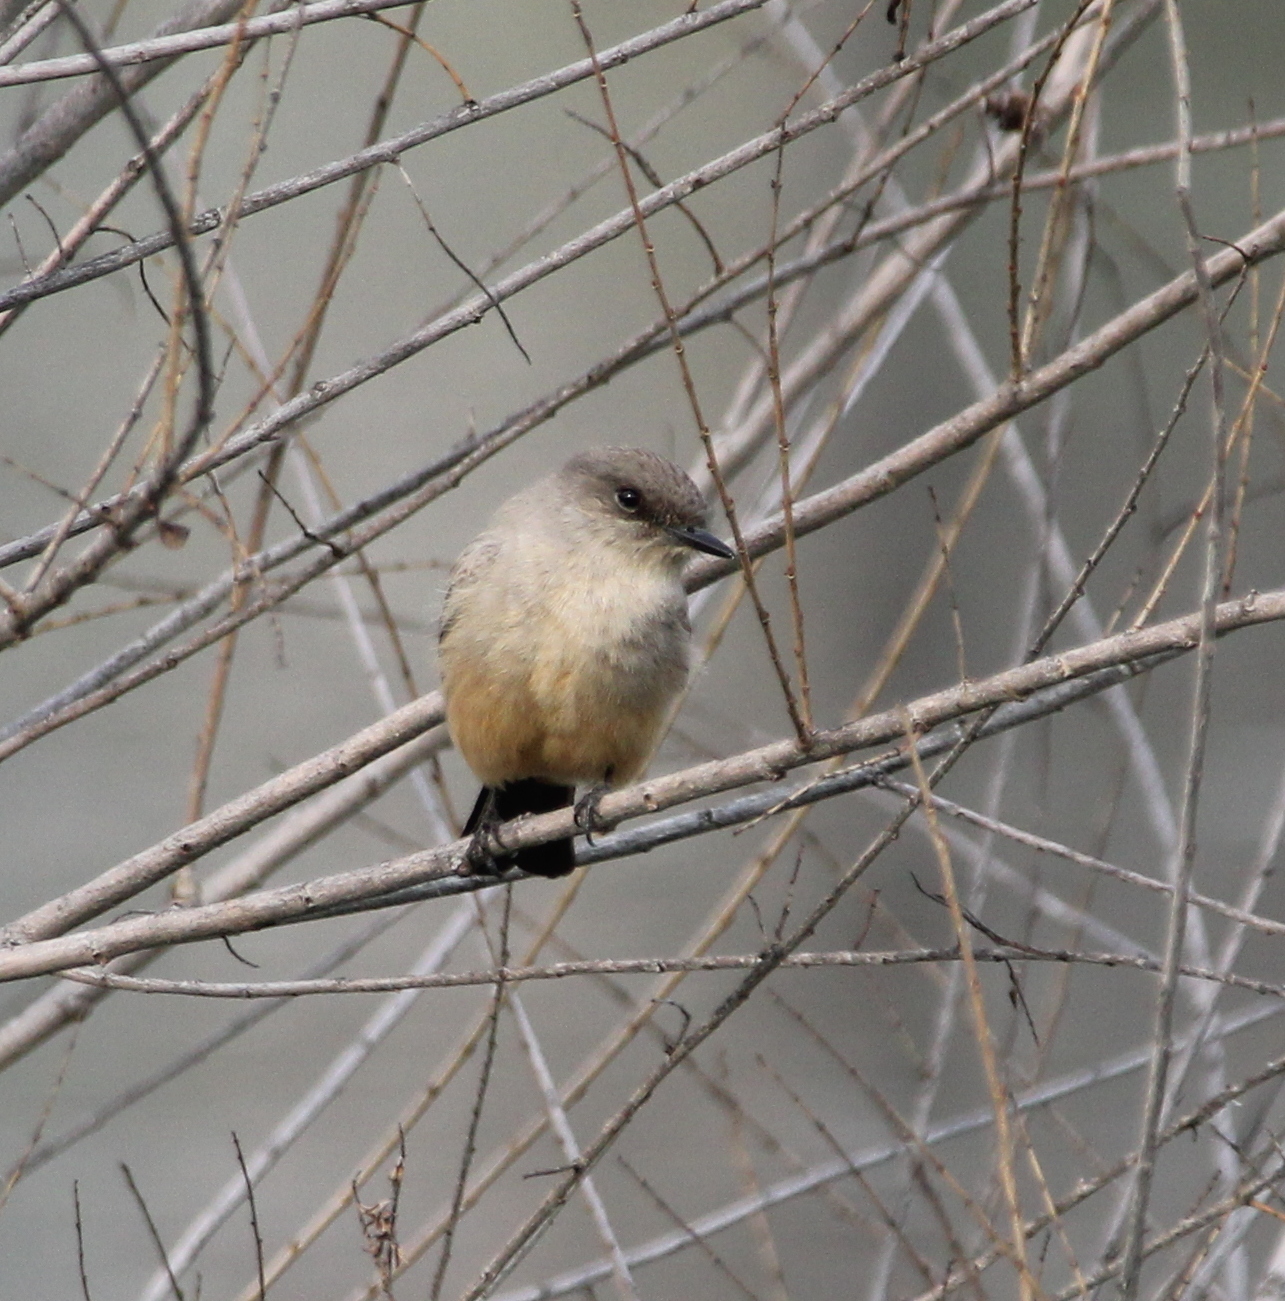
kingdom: Animalia
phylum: Chordata
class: Aves
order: Passeriformes
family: Tyrannidae
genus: Sayornis
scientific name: Sayornis saya
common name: Say's phoebe
